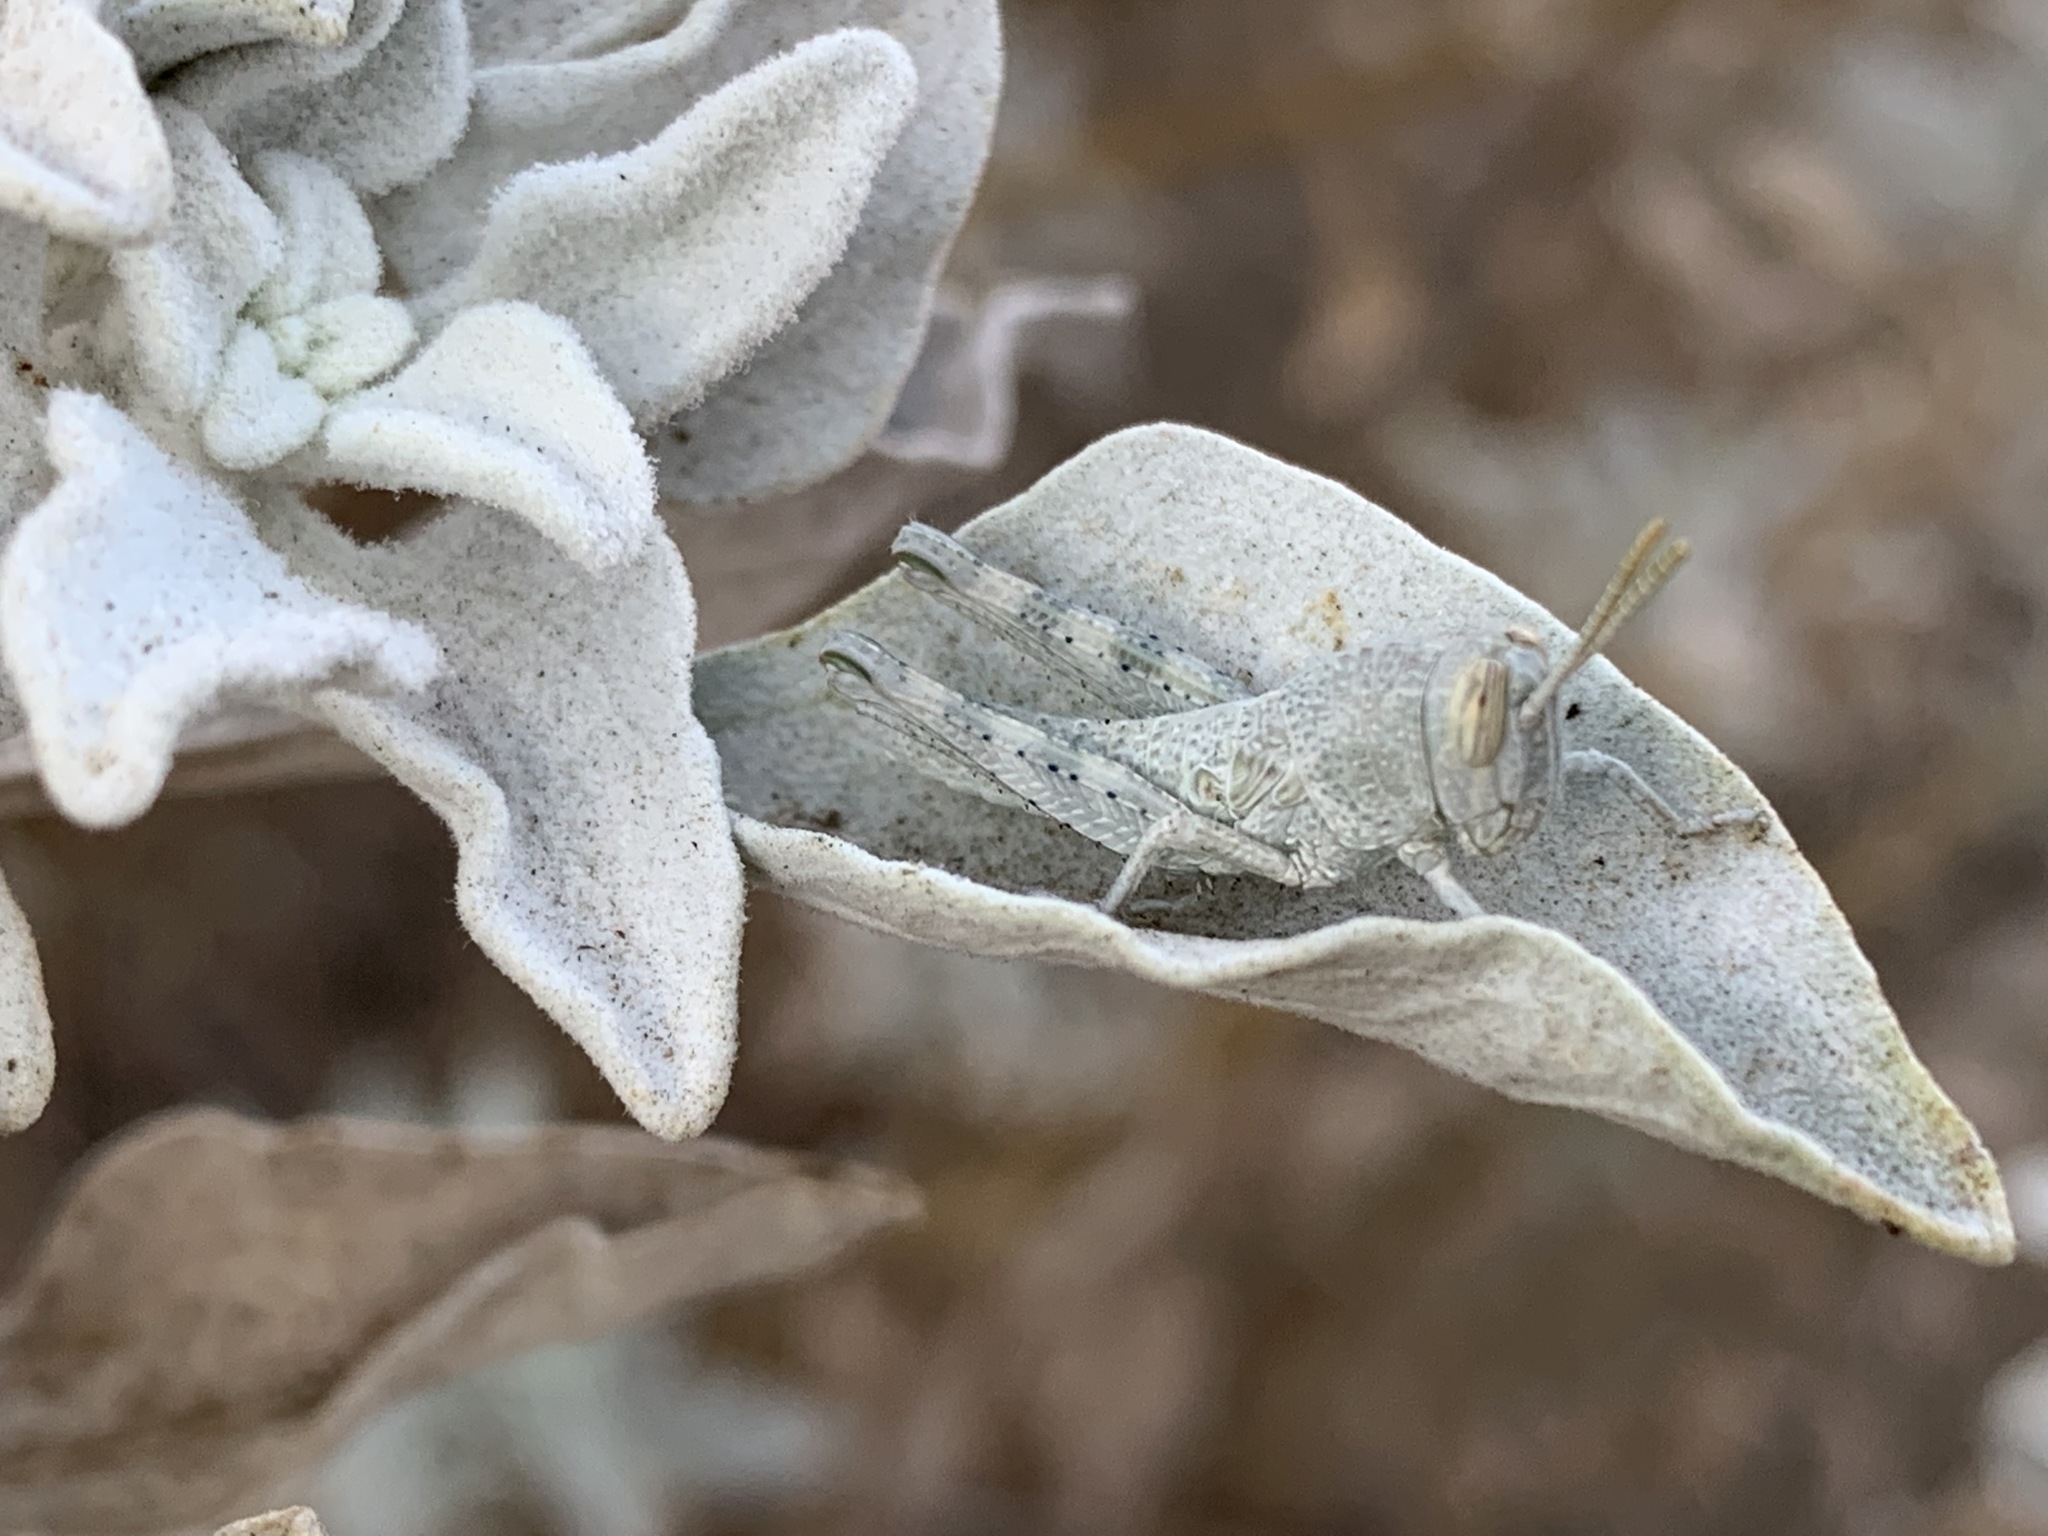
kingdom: Animalia
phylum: Arthropoda
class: Insecta
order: Orthoptera
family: Acrididae
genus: Schistocerca
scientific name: Schistocerca nitens
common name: Vagrant grasshopper
